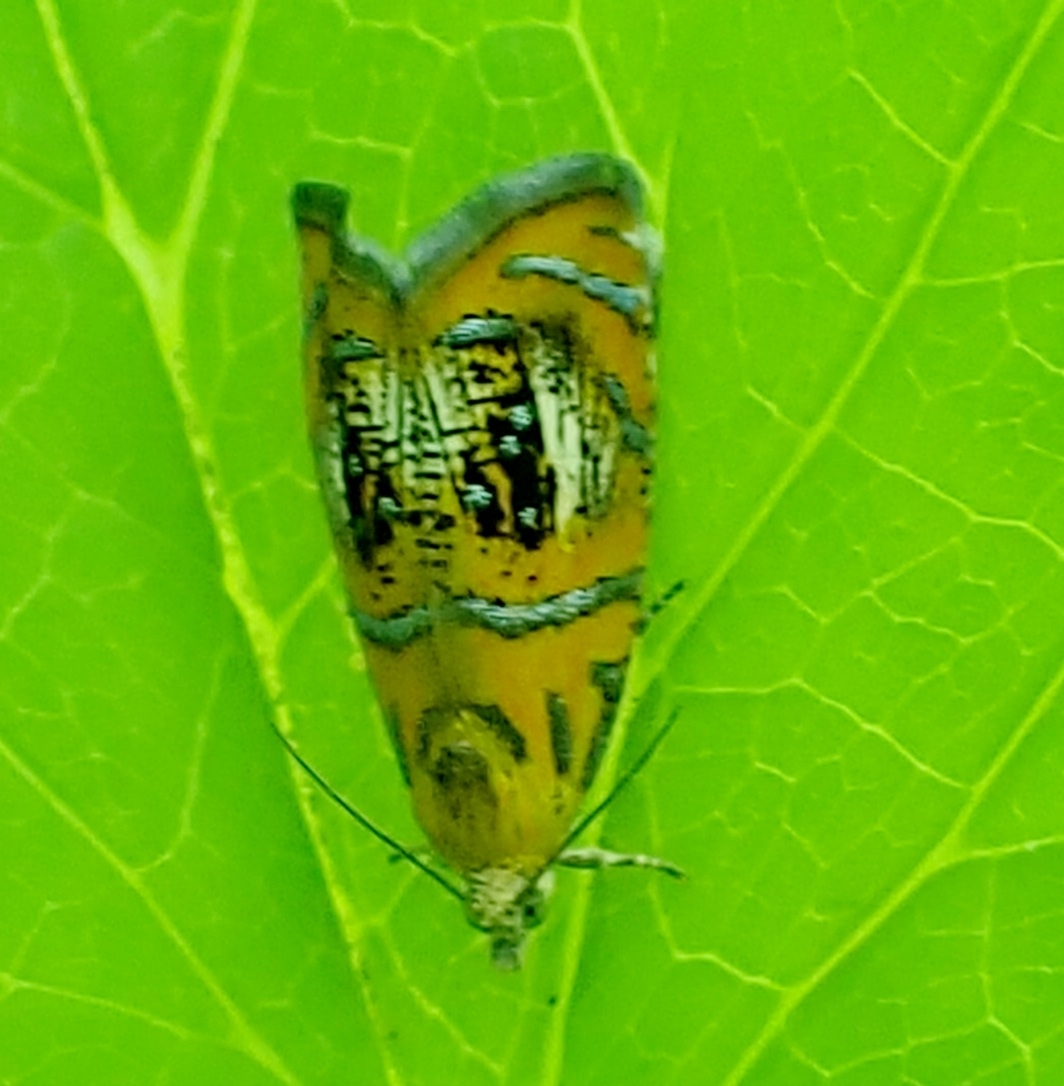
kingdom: Animalia
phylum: Arthropoda
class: Insecta
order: Lepidoptera
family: Tortricidae
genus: Olethreutes
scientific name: Olethreutes arcuella
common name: Arched marble
